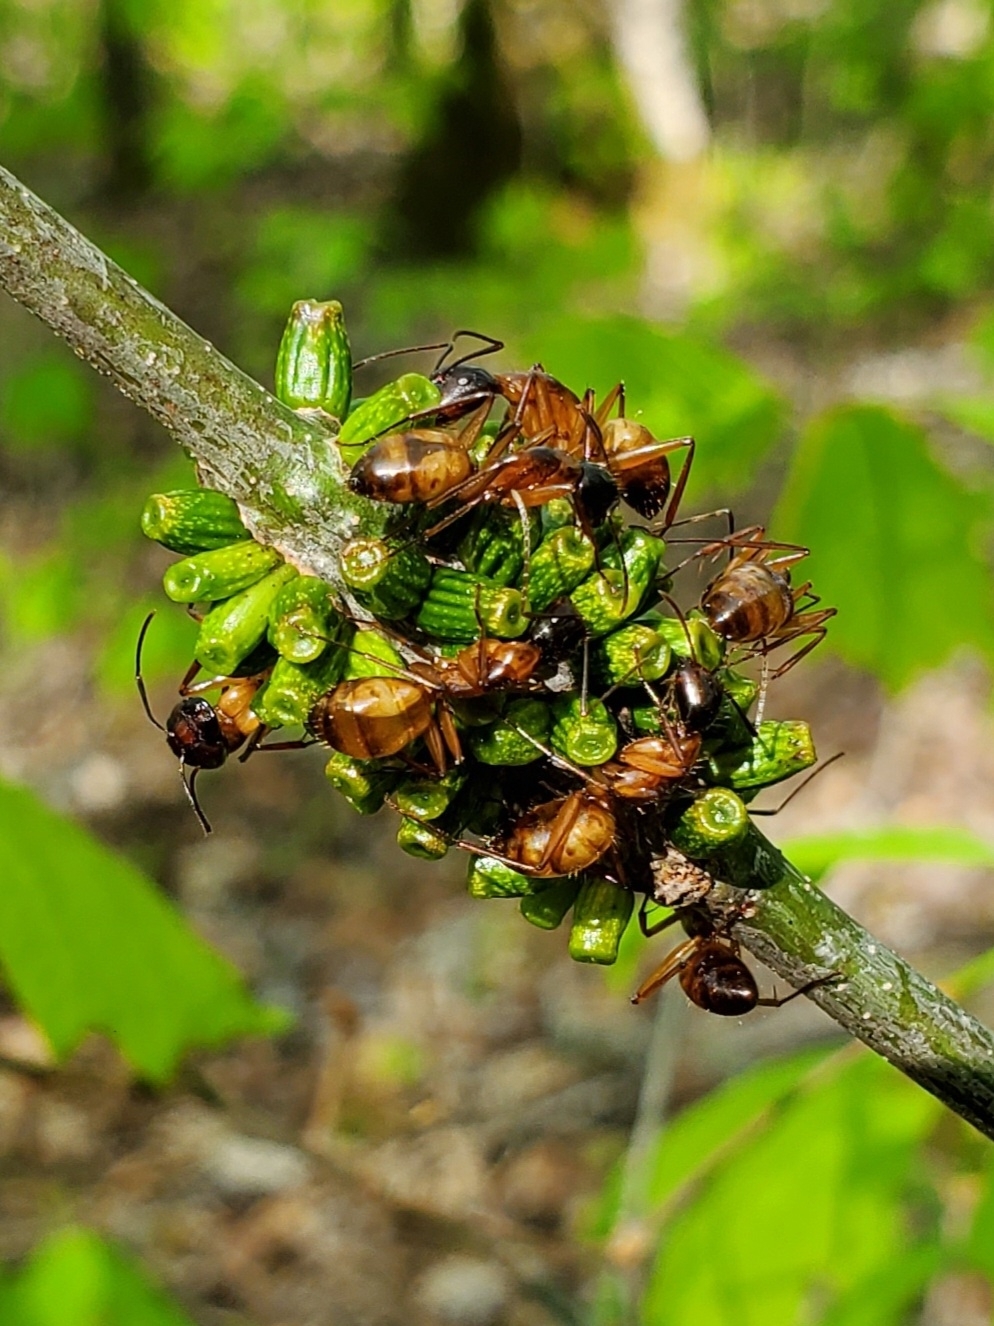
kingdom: Animalia
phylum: Arthropoda
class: Insecta
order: Hymenoptera
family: Cynipidae
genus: Callirhytis
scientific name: Callirhytis
